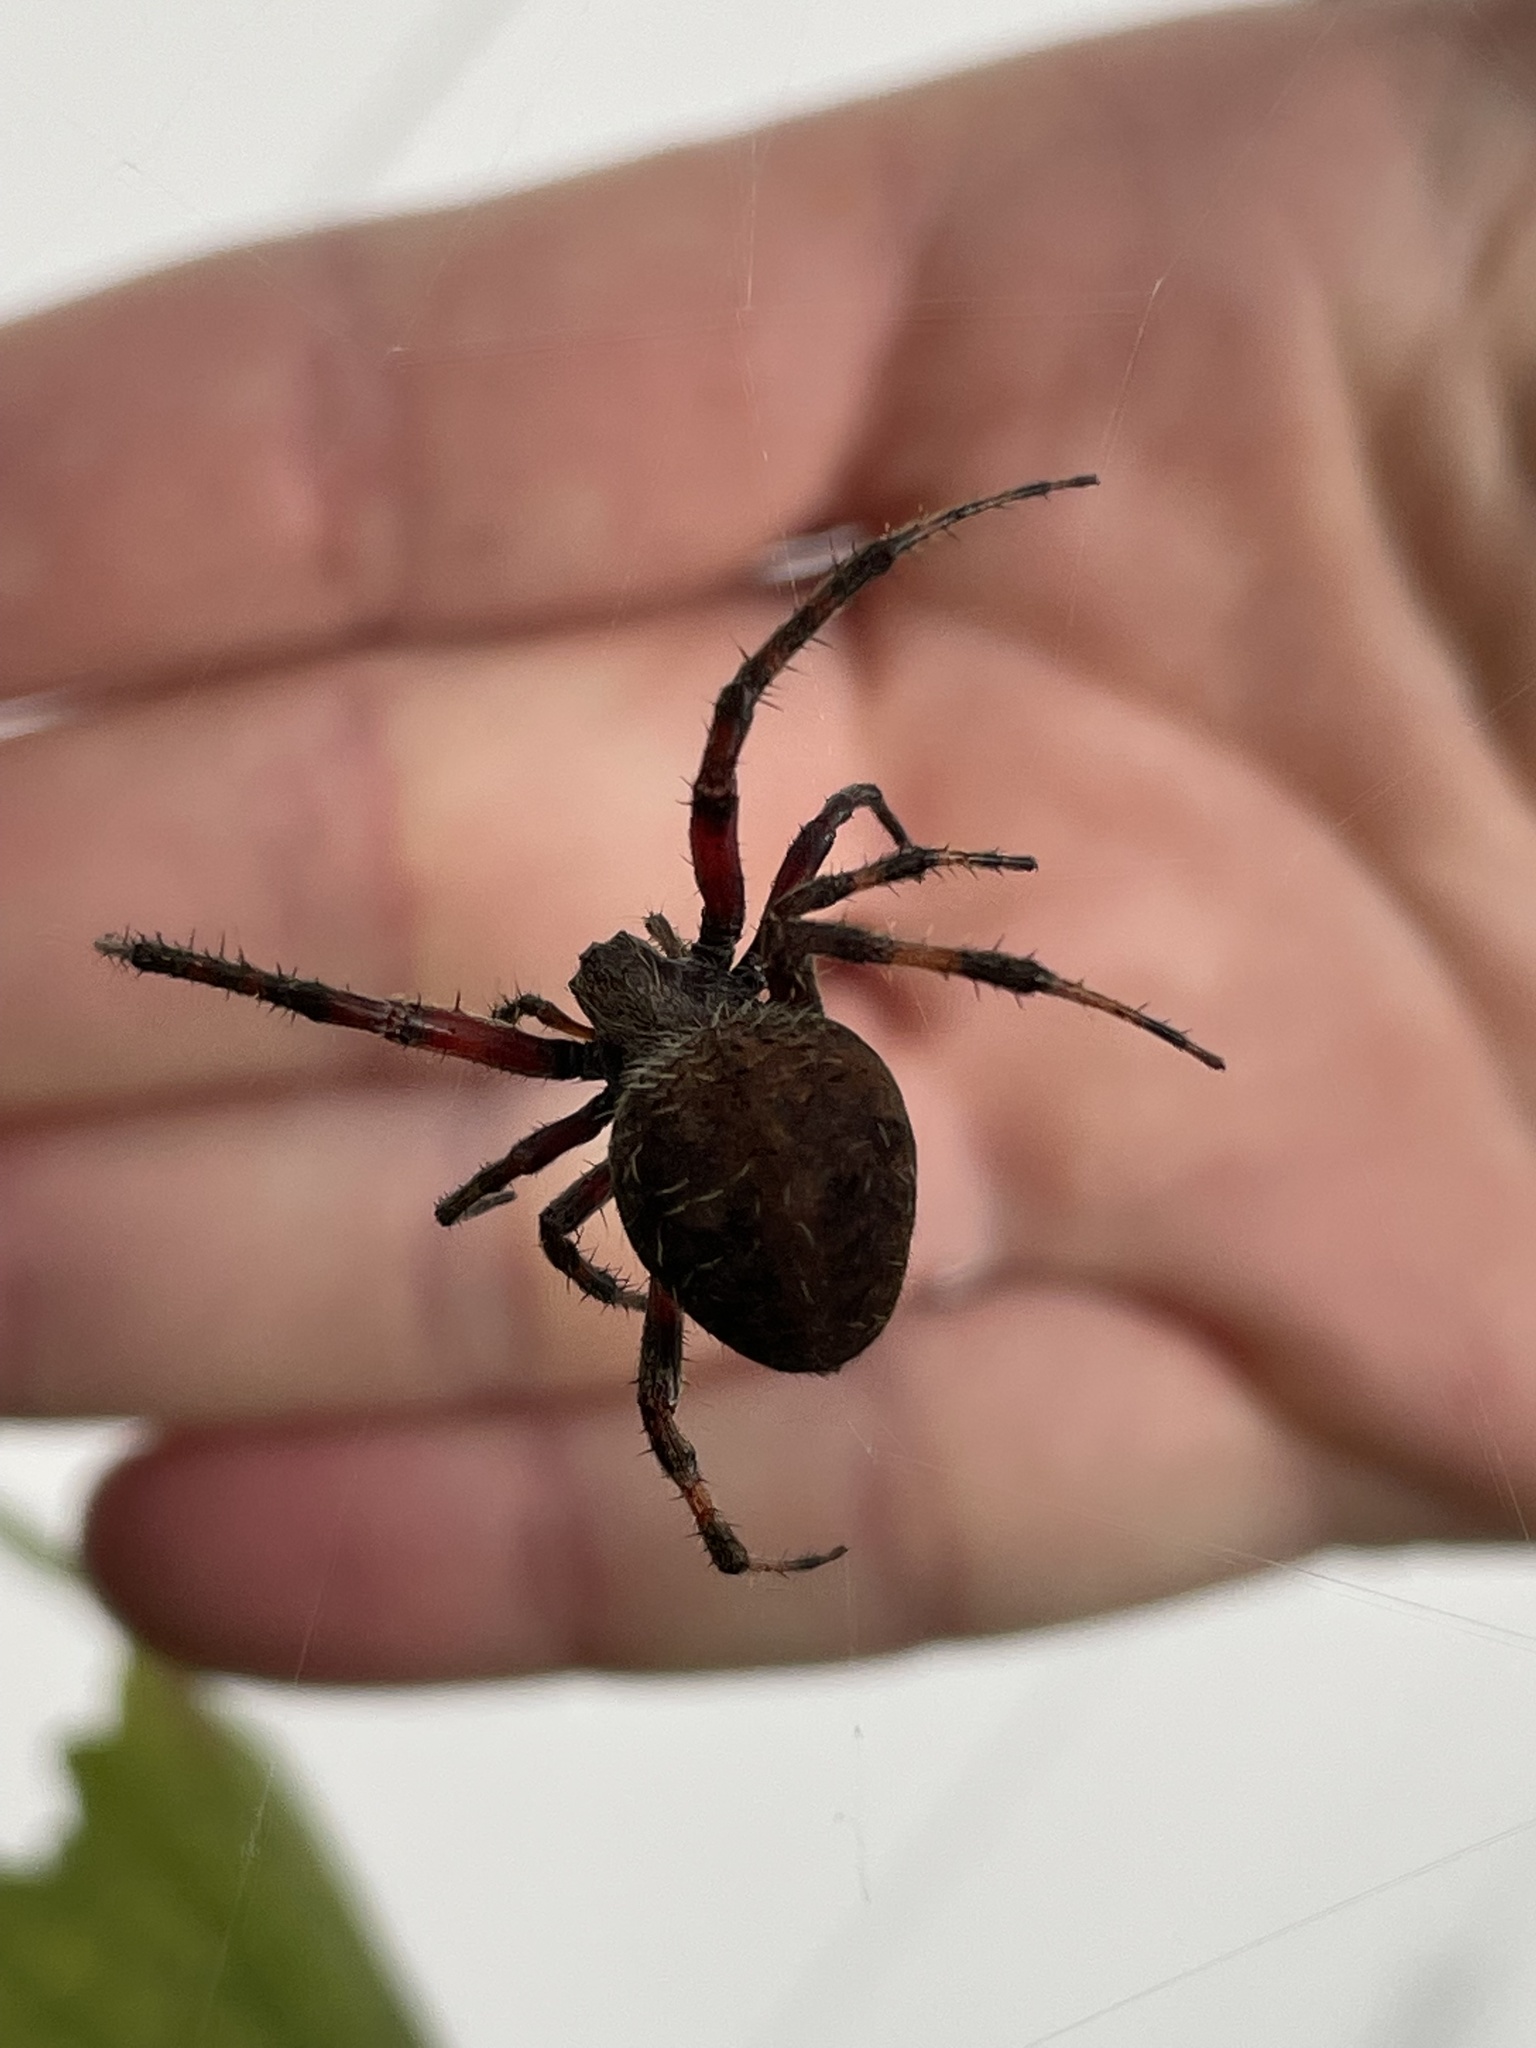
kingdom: Animalia
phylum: Arthropoda
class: Arachnida
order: Araneae
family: Araneidae
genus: Neoscona
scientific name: Neoscona crucifera
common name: Spotted orbweaver
